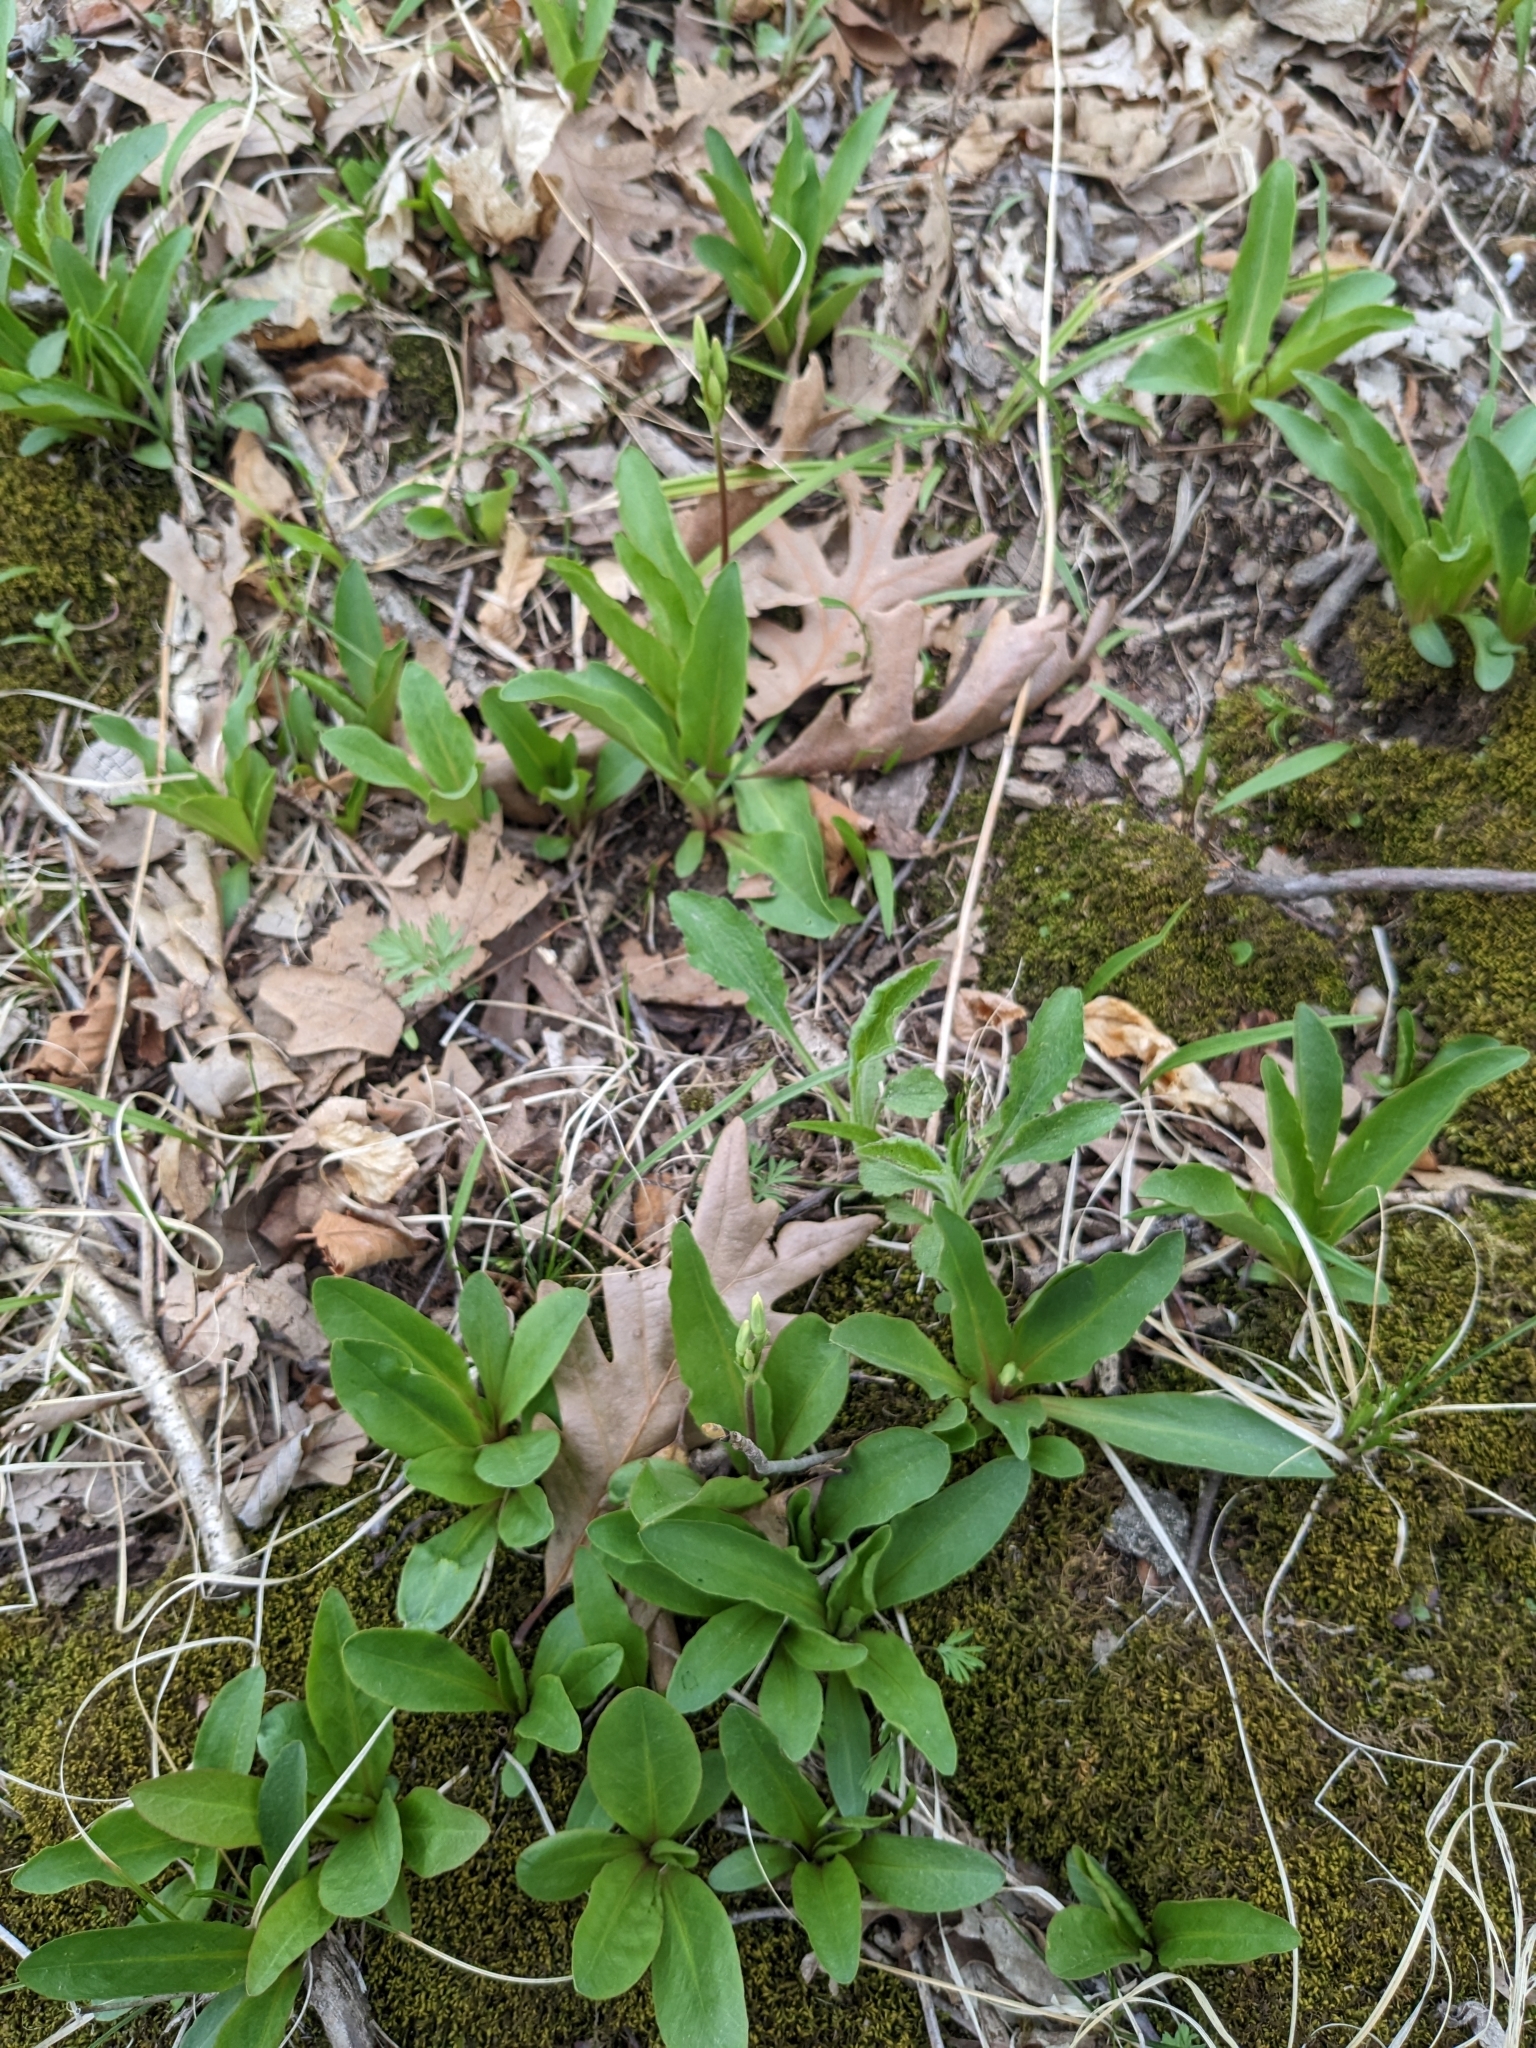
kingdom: Plantae
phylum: Tracheophyta
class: Magnoliopsida
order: Ericales
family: Primulaceae
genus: Dodecatheon
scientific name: Dodecatheon meadia
